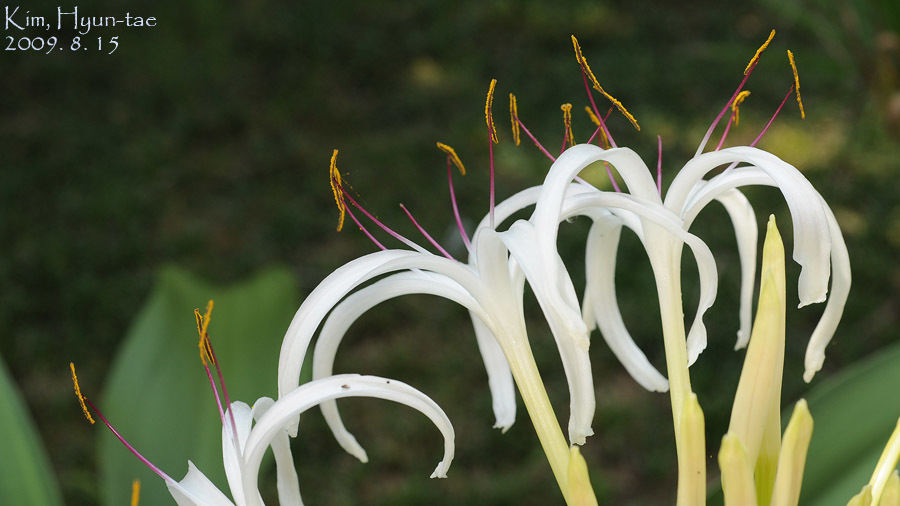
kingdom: Plantae
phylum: Tracheophyta
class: Liliopsida
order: Asparagales
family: Amaryllidaceae
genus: Crinum
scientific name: Crinum asiaticum
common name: Poisonbulb
